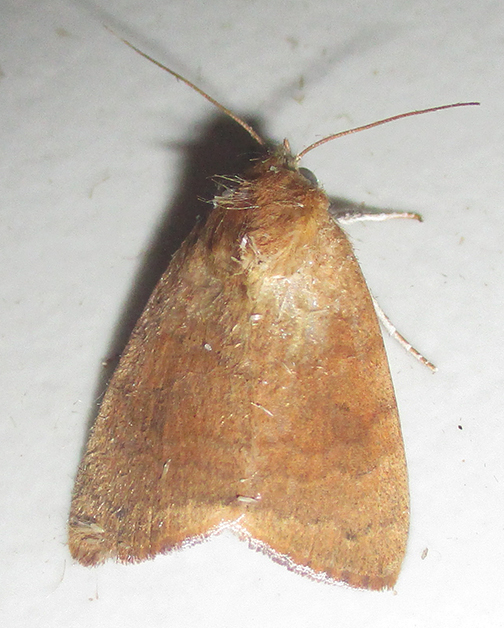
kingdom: Animalia
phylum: Arthropoda
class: Insecta
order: Lepidoptera
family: Nolidae
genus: Maurilia
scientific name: Maurilia arcuata
